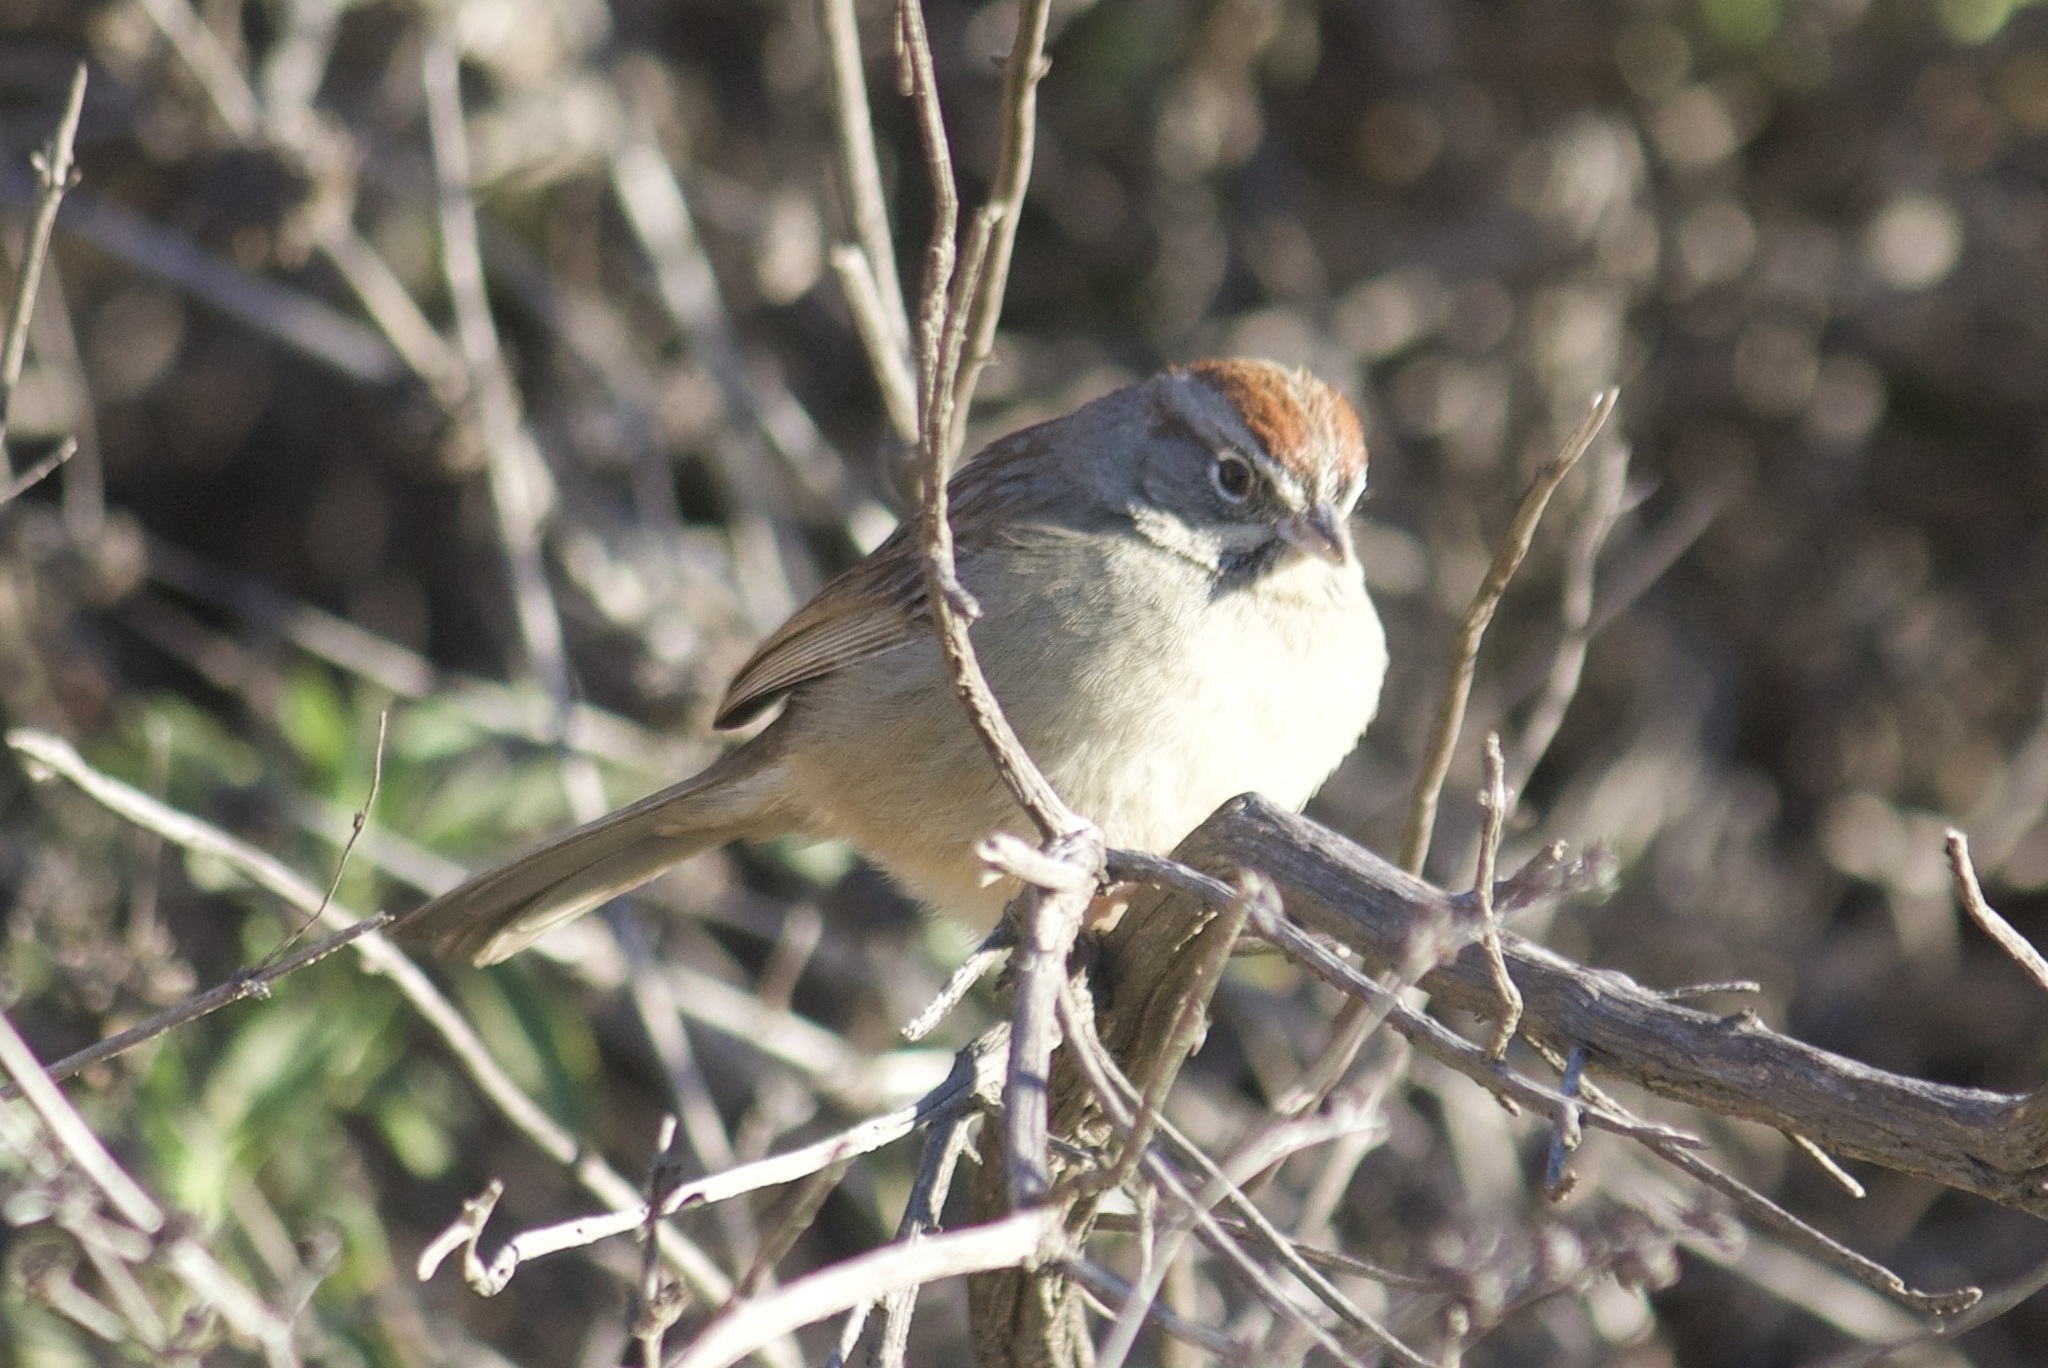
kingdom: Animalia
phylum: Chordata
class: Aves
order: Passeriformes
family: Passerellidae
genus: Aimophila
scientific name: Aimophila ruficeps
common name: Rufous-crowned sparrow
